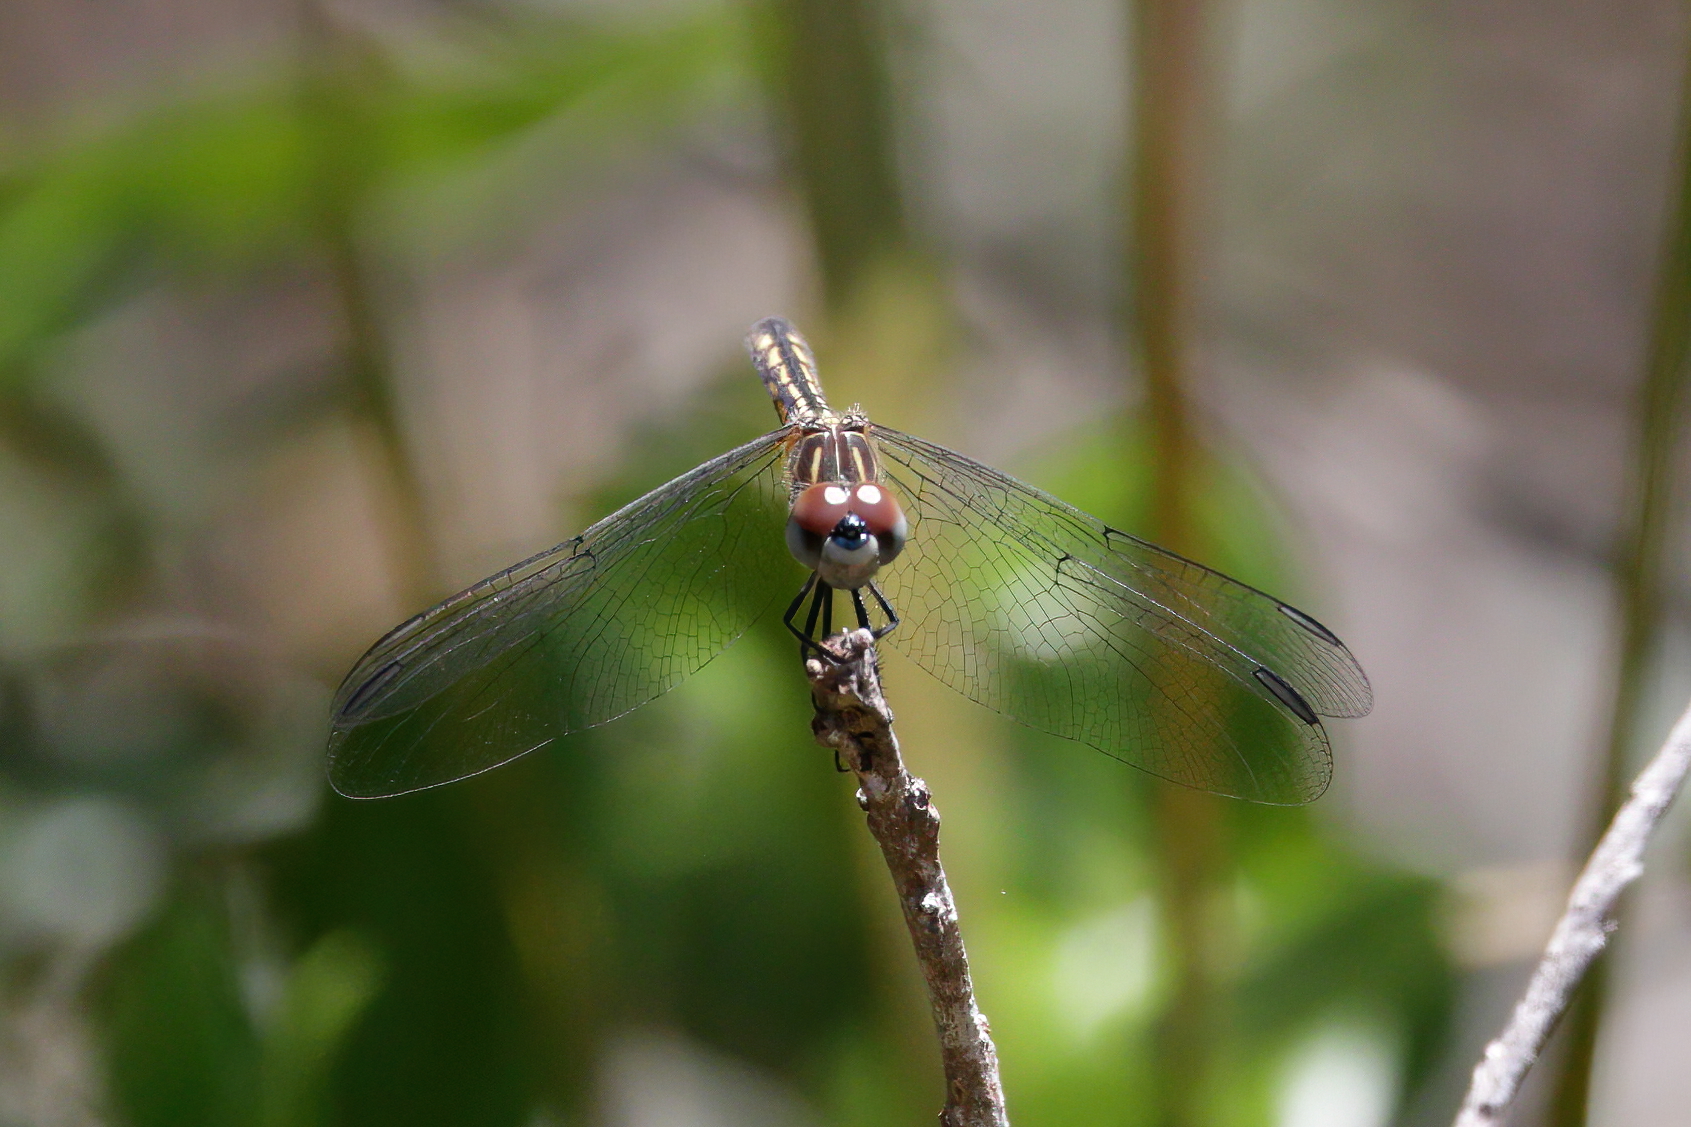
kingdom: Animalia
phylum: Arthropoda
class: Insecta
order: Odonata
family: Libellulidae
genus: Pachydiplax
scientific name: Pachydiplax longipennis
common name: Blue dasher
